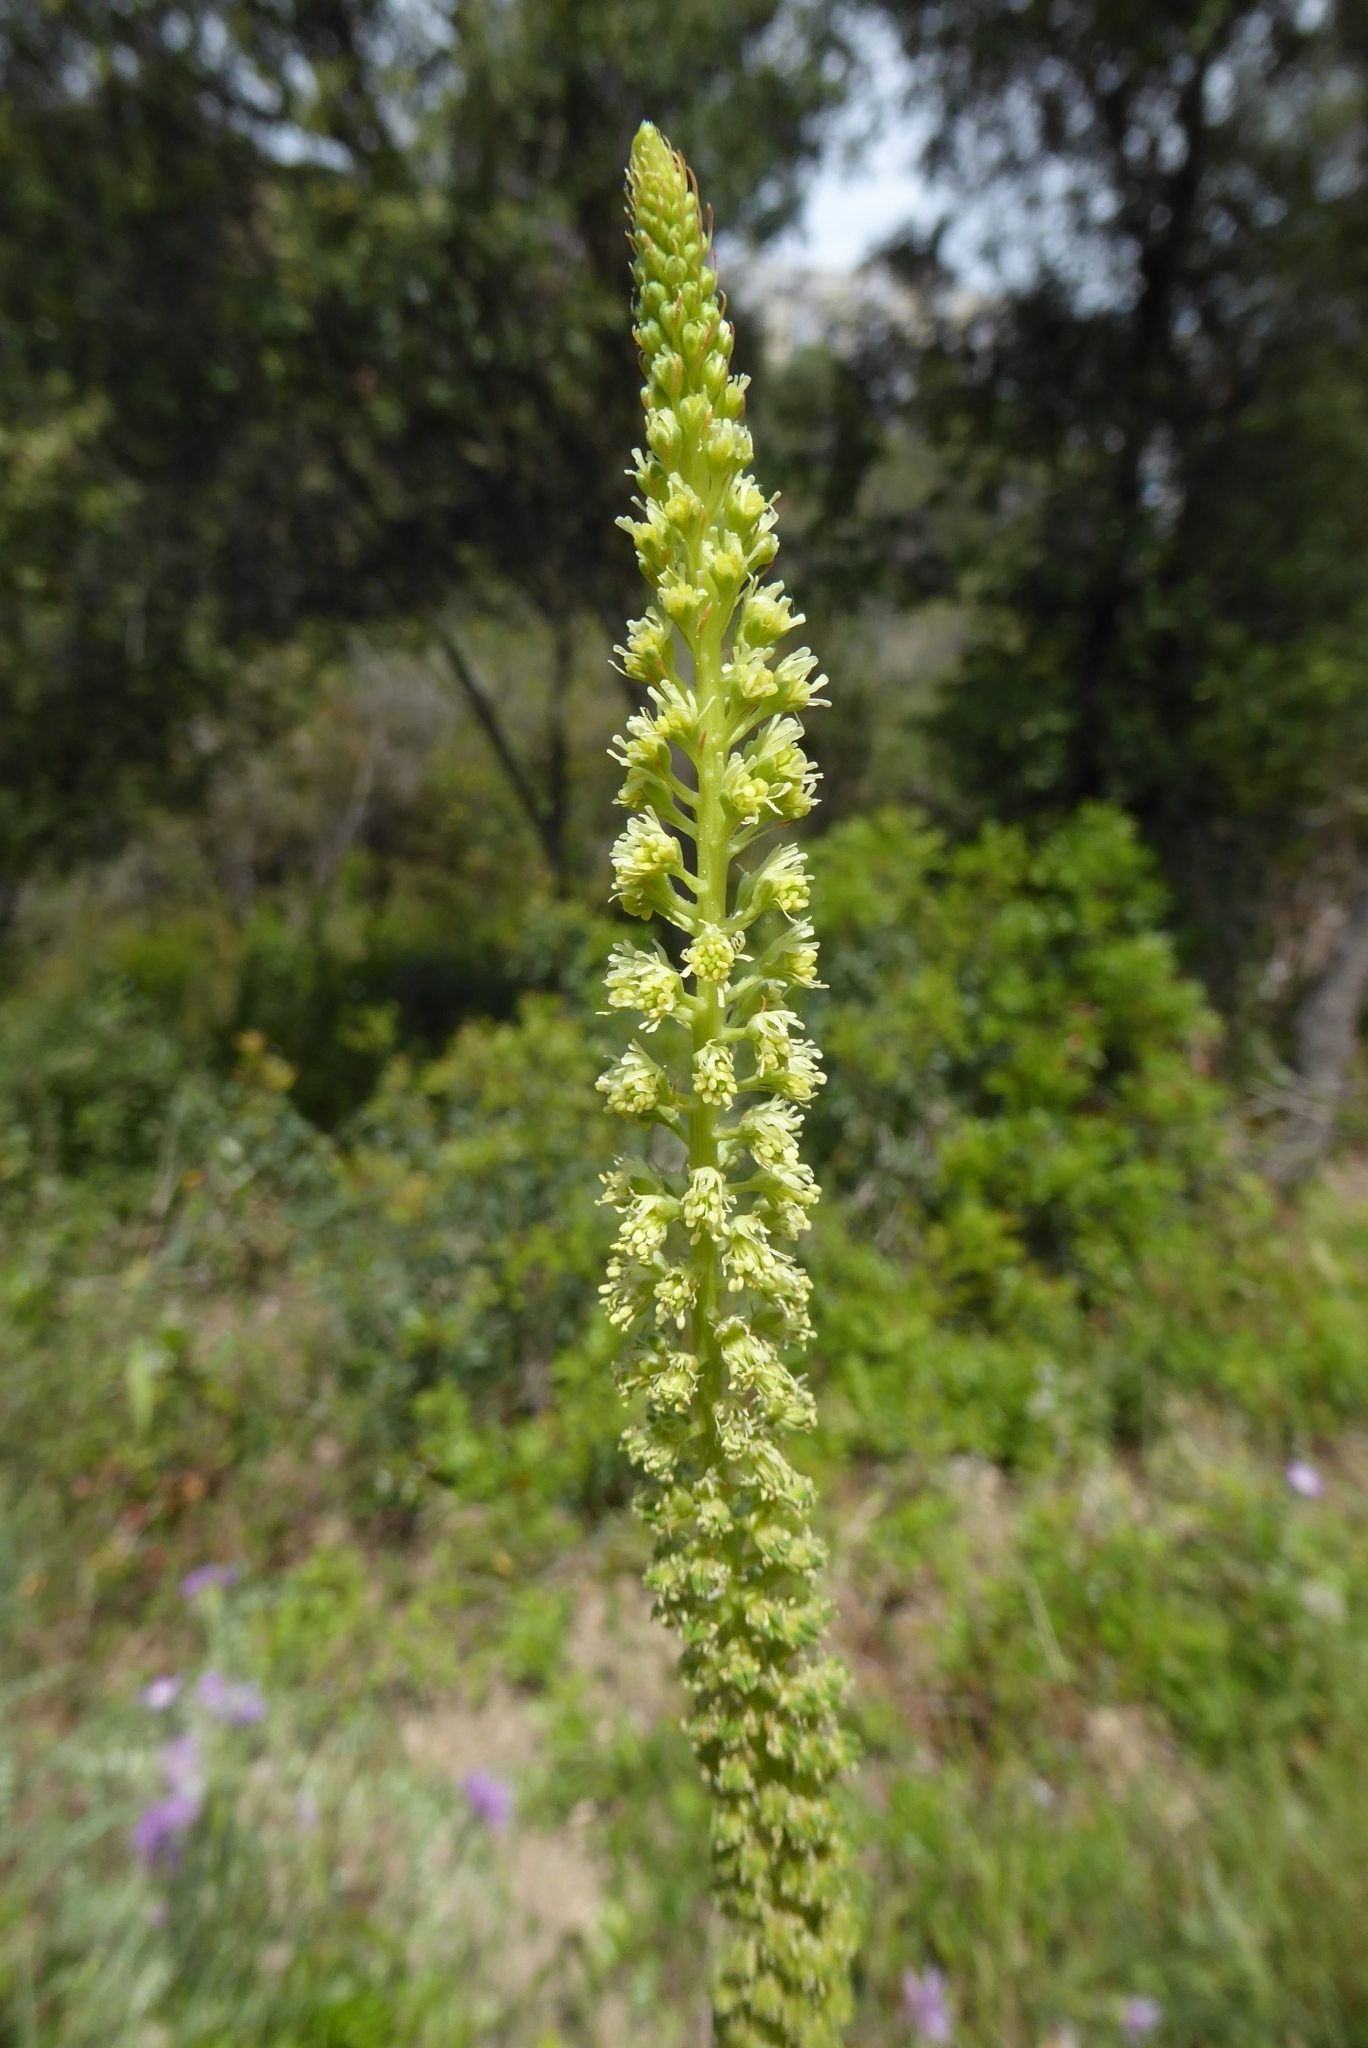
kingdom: Plantae
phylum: Tracheophyta
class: Magnoliopsida
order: Brassicales
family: Resedaceae
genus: Reseda
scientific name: Reseda luteola
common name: Weld
